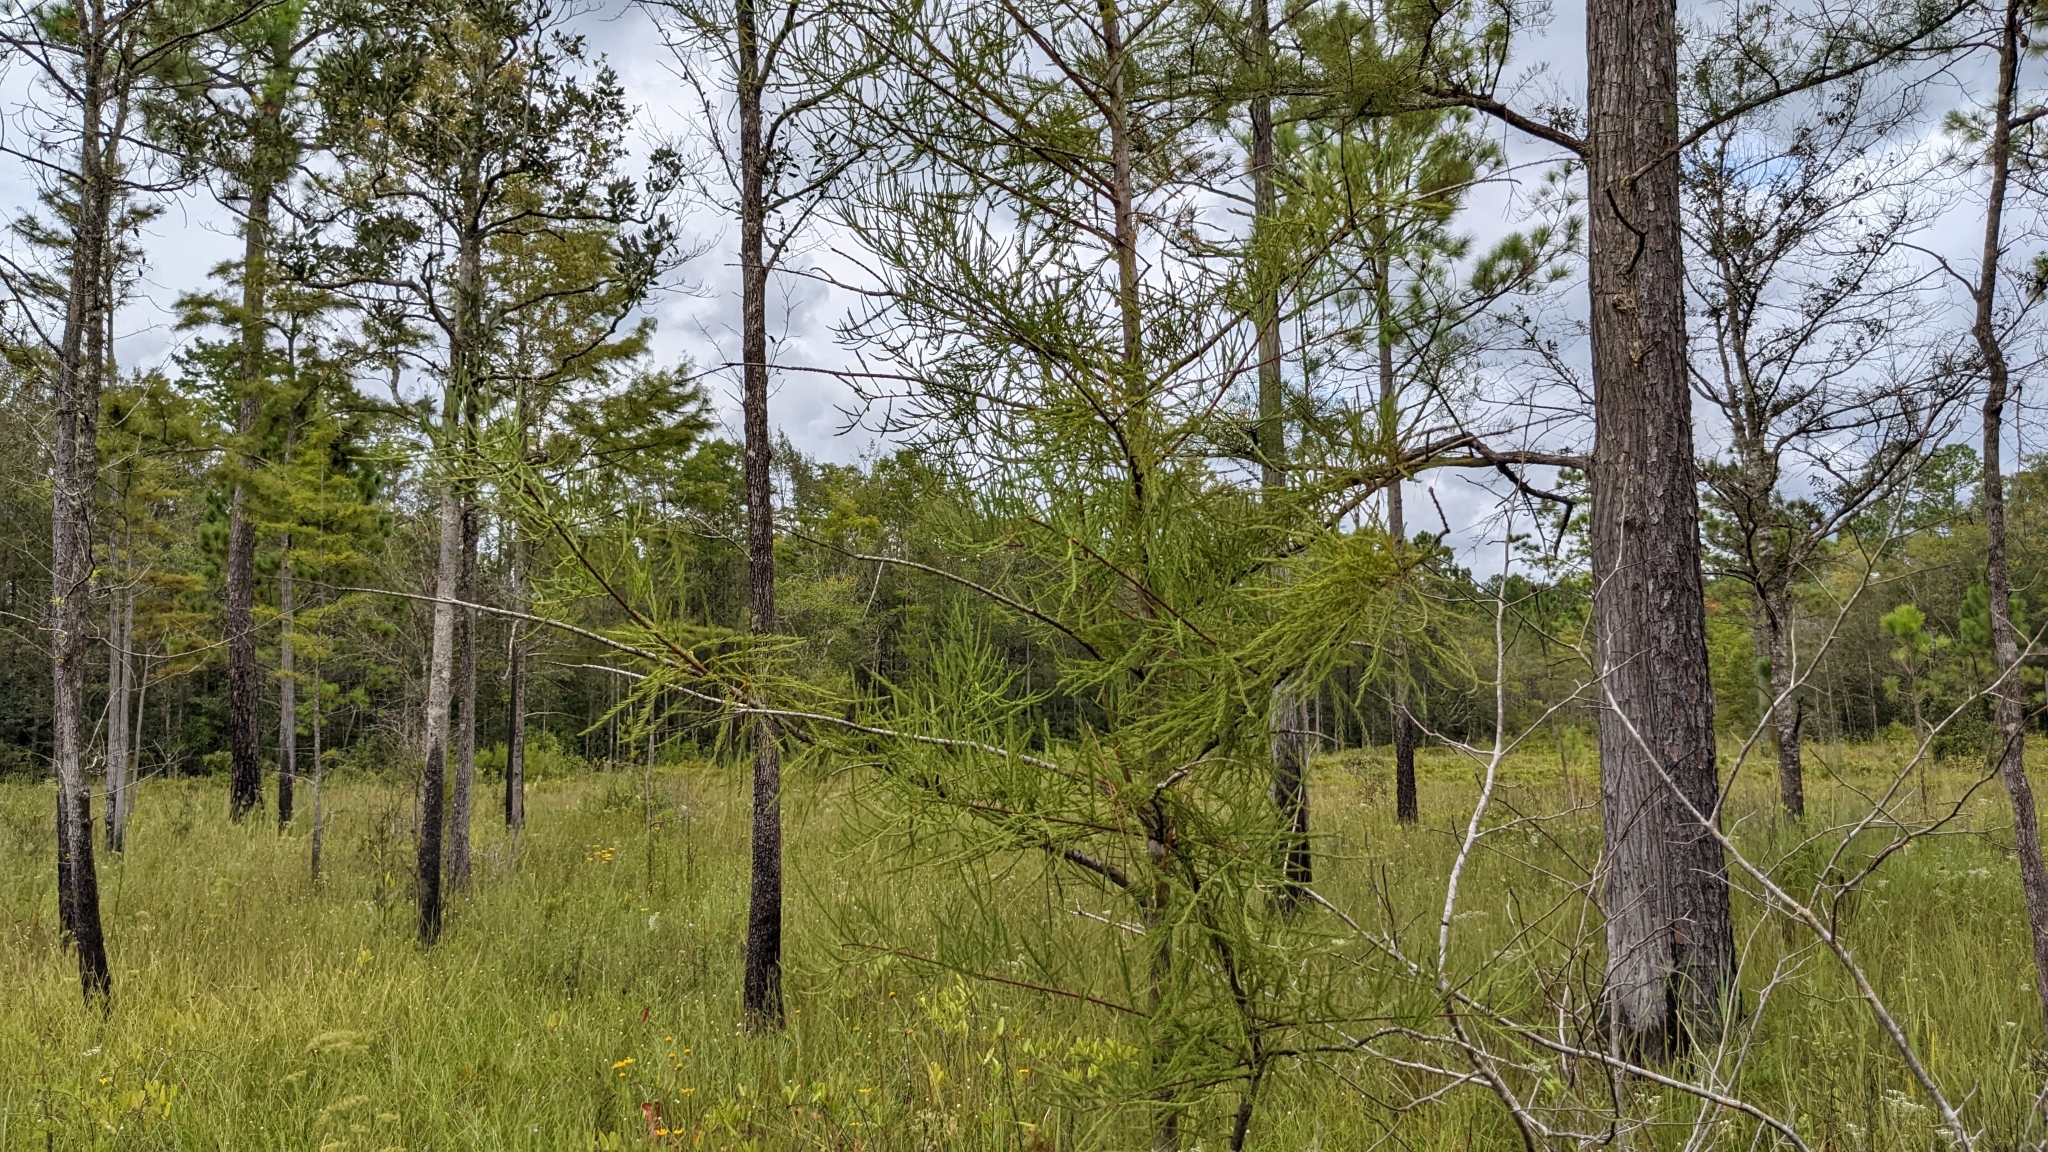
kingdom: Plantae
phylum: Tracheophyta
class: Pinopsida
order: Pinales
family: Cupressaceae
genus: Taxodium
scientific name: Taxodium distichum
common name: Bald cypress
